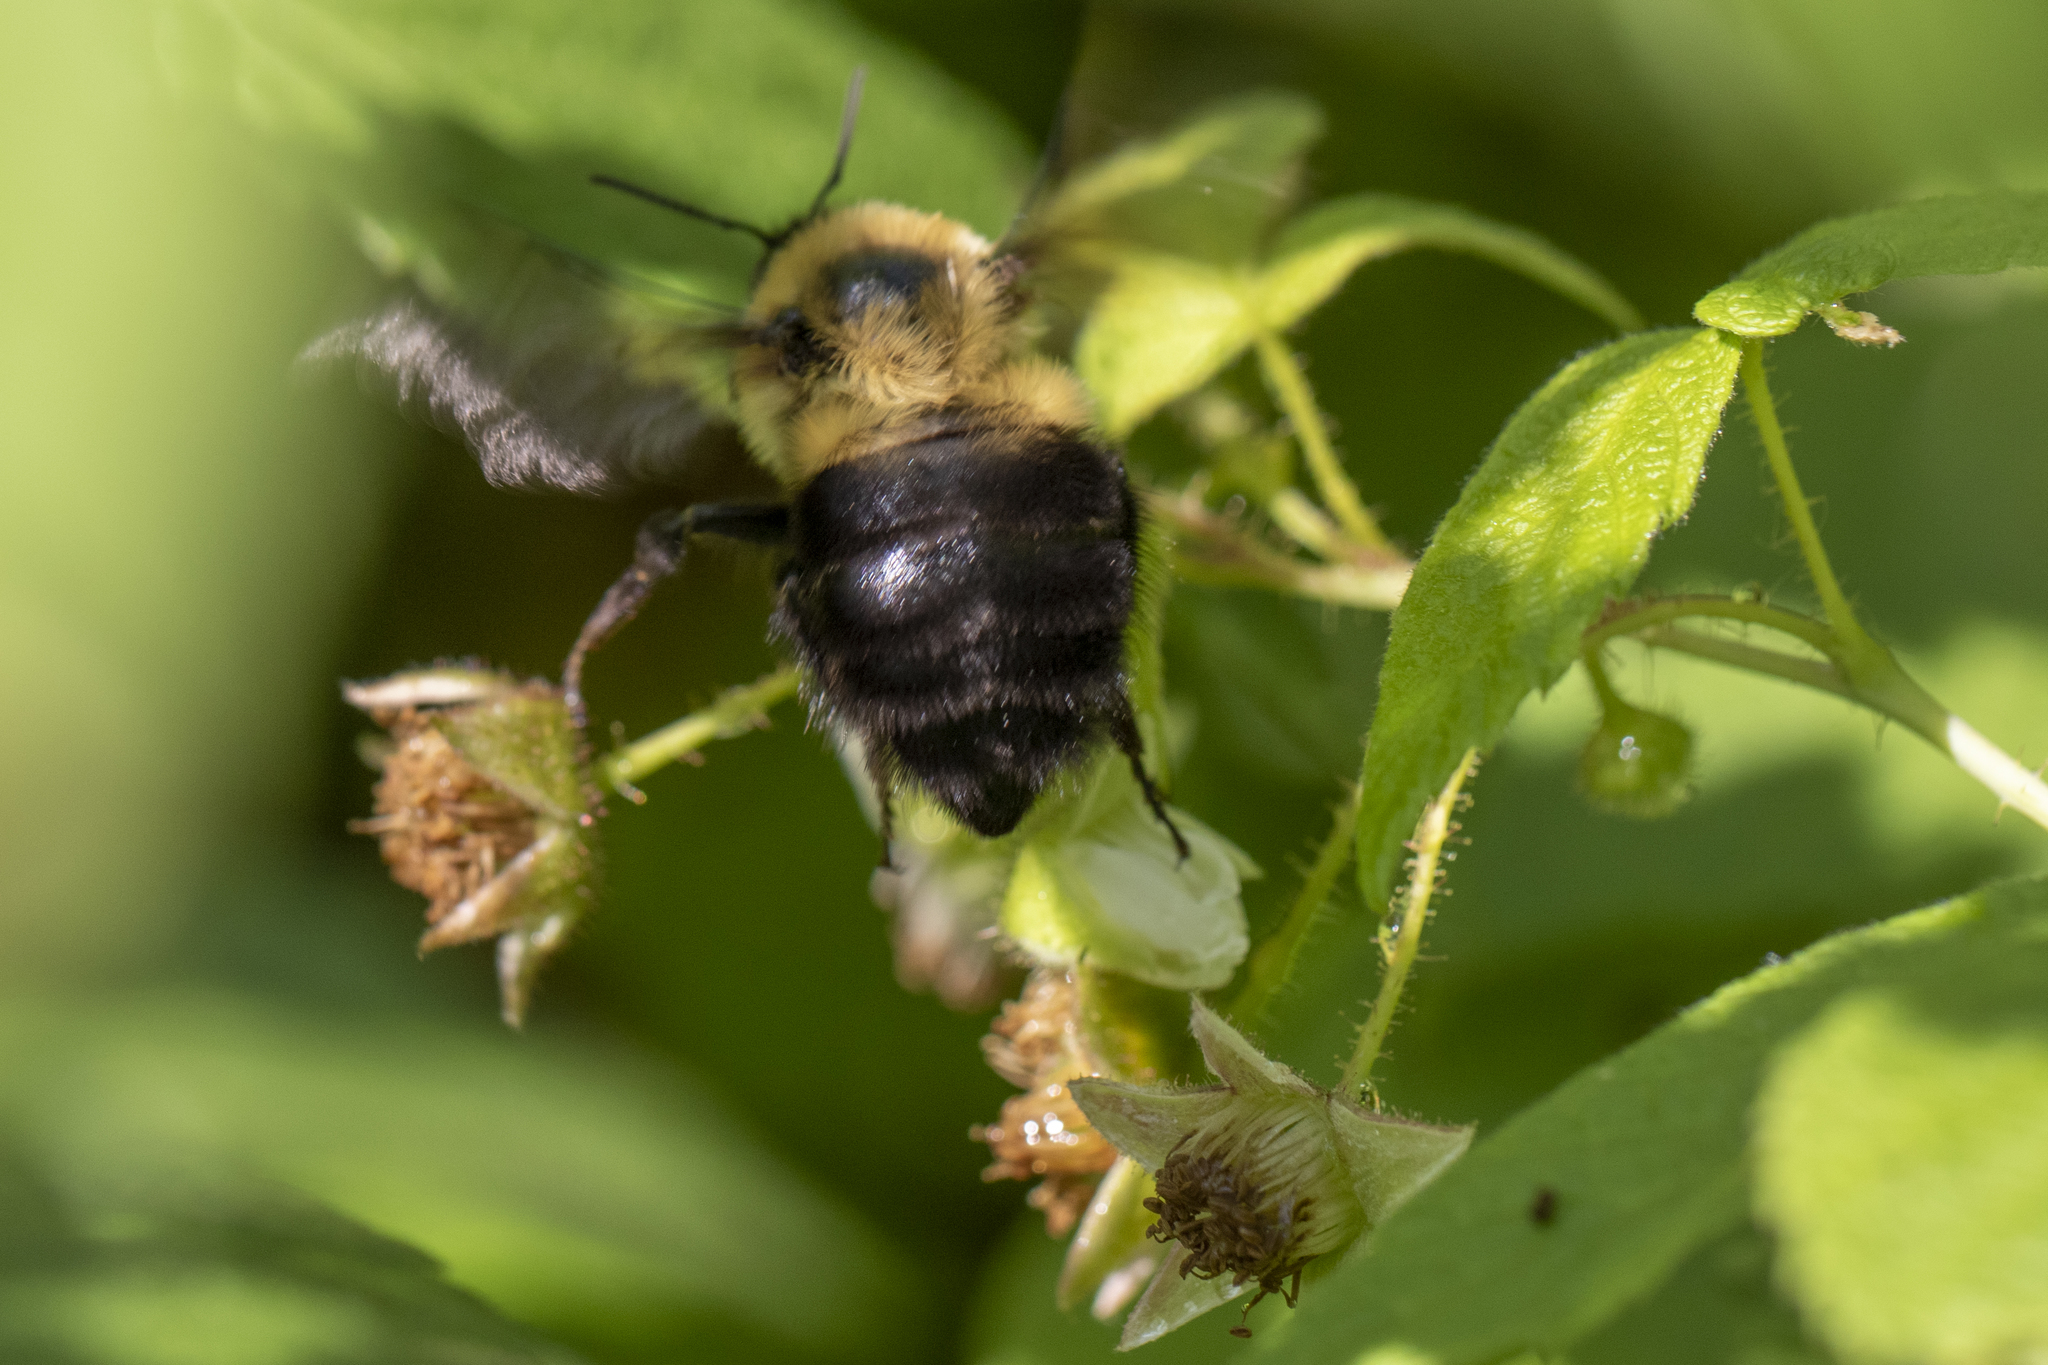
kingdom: Animalia
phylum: Arthropoda
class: Insecta
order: Hymenoptera
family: Apidae
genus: Bombus
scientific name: Bombus bimaculatus
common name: Two-spotted bumble bee
